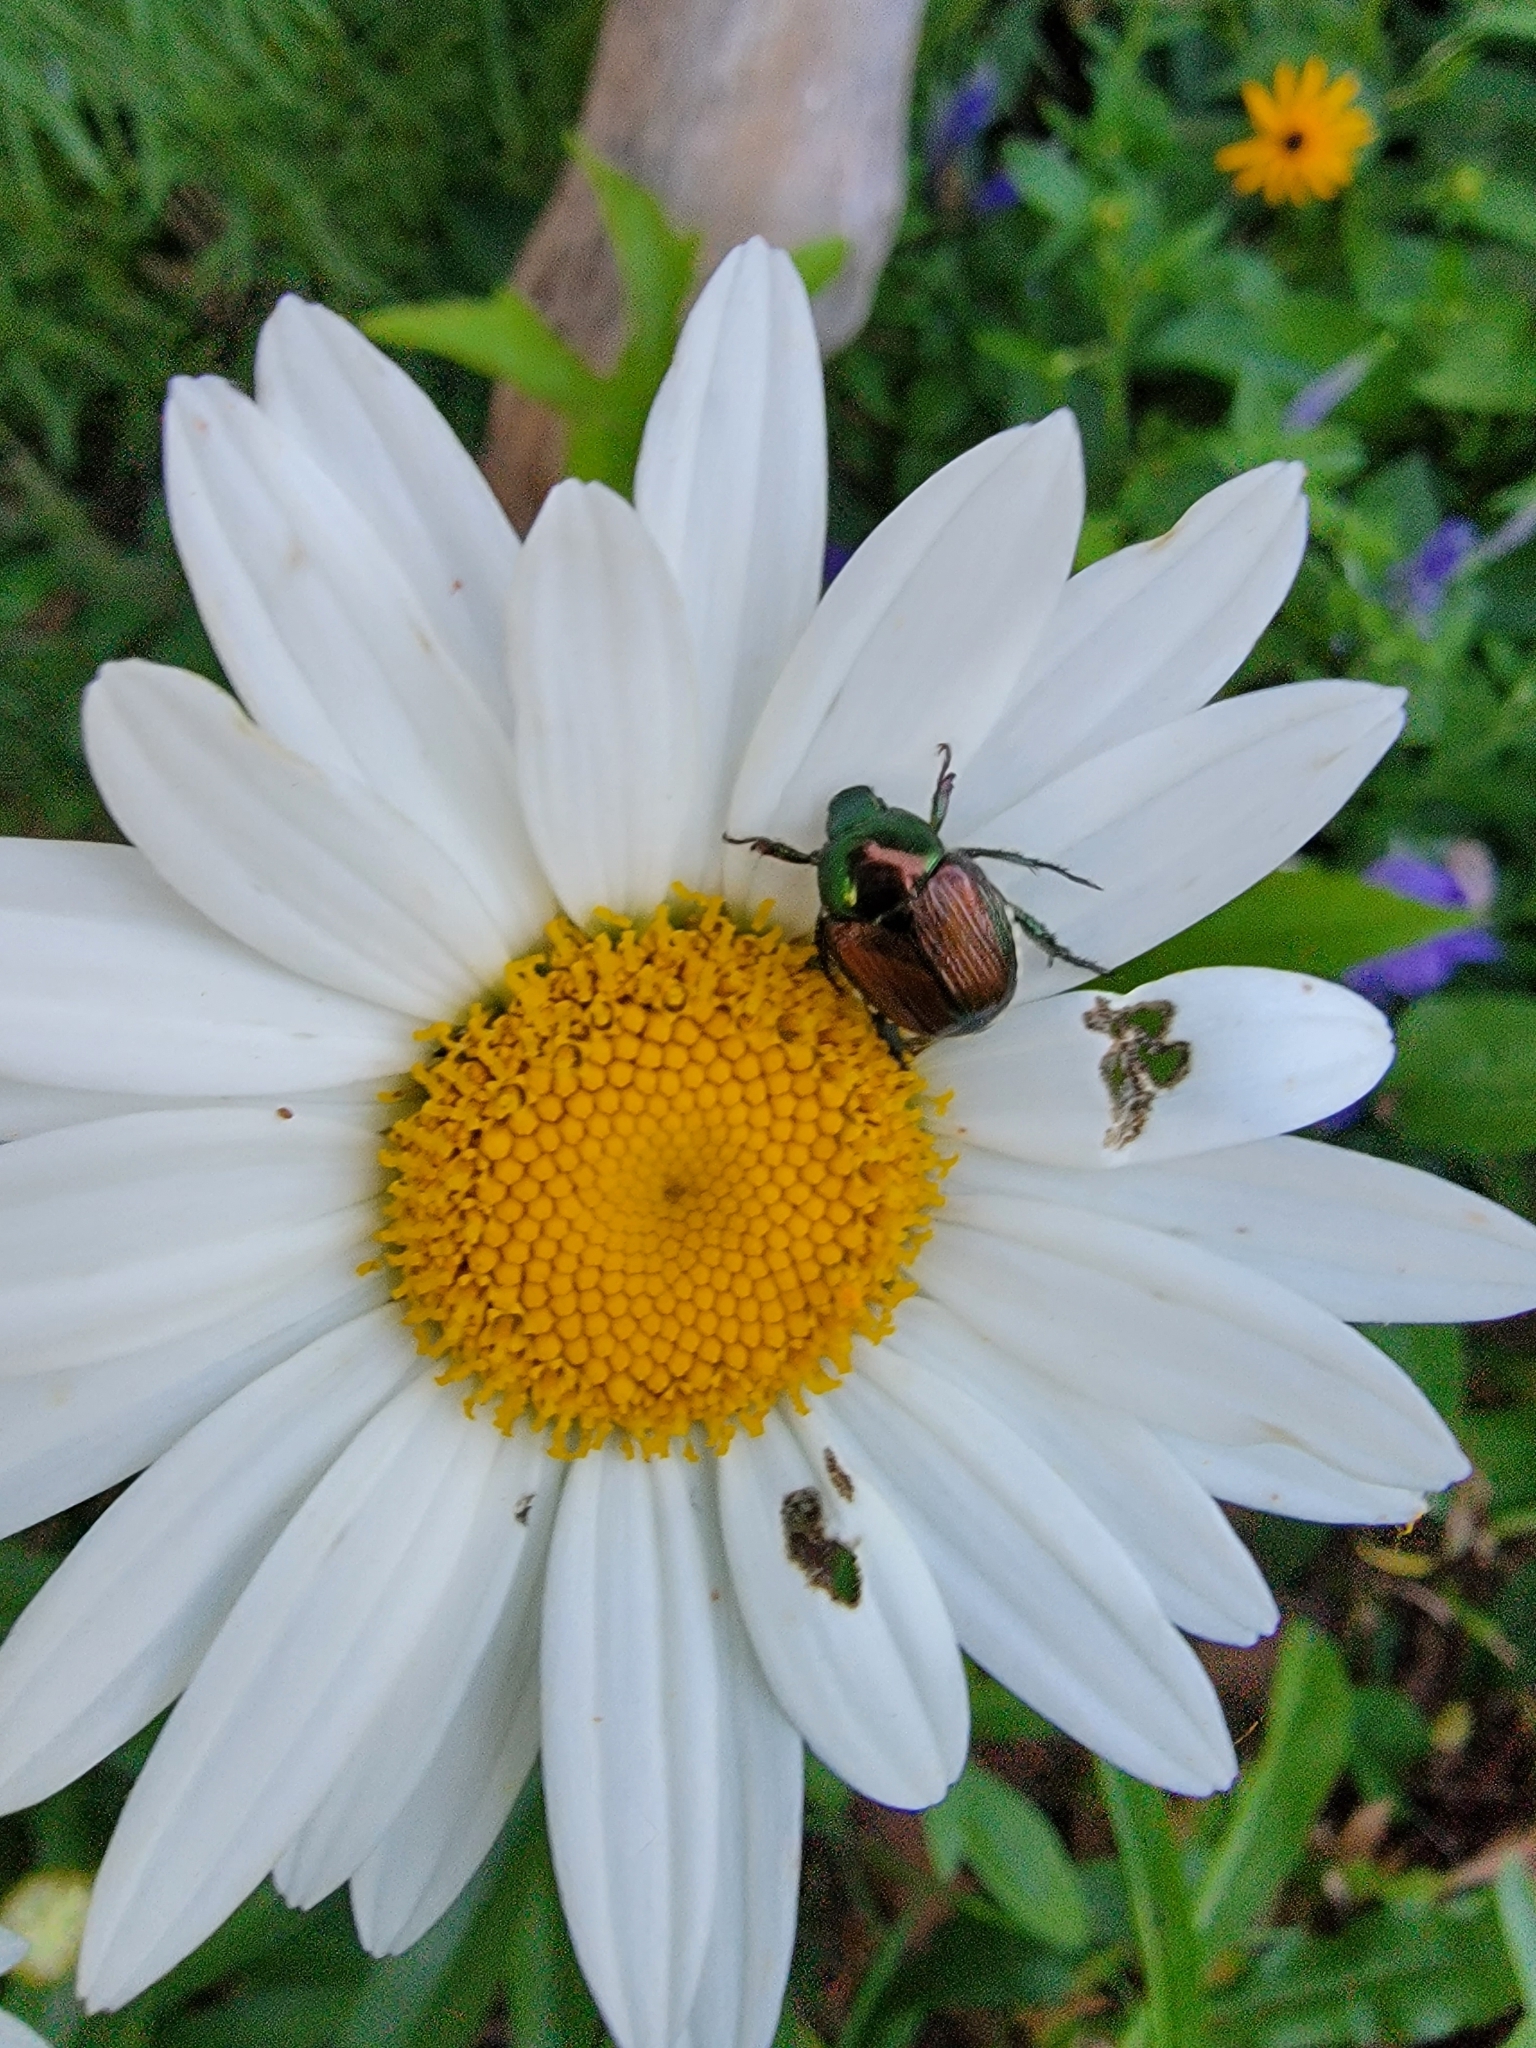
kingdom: Animalia
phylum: Arthropoda
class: Insecta
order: Coleoptera
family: Scarabaeidae
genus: Popillia
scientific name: Popillia japonica
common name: Japanese beetle
